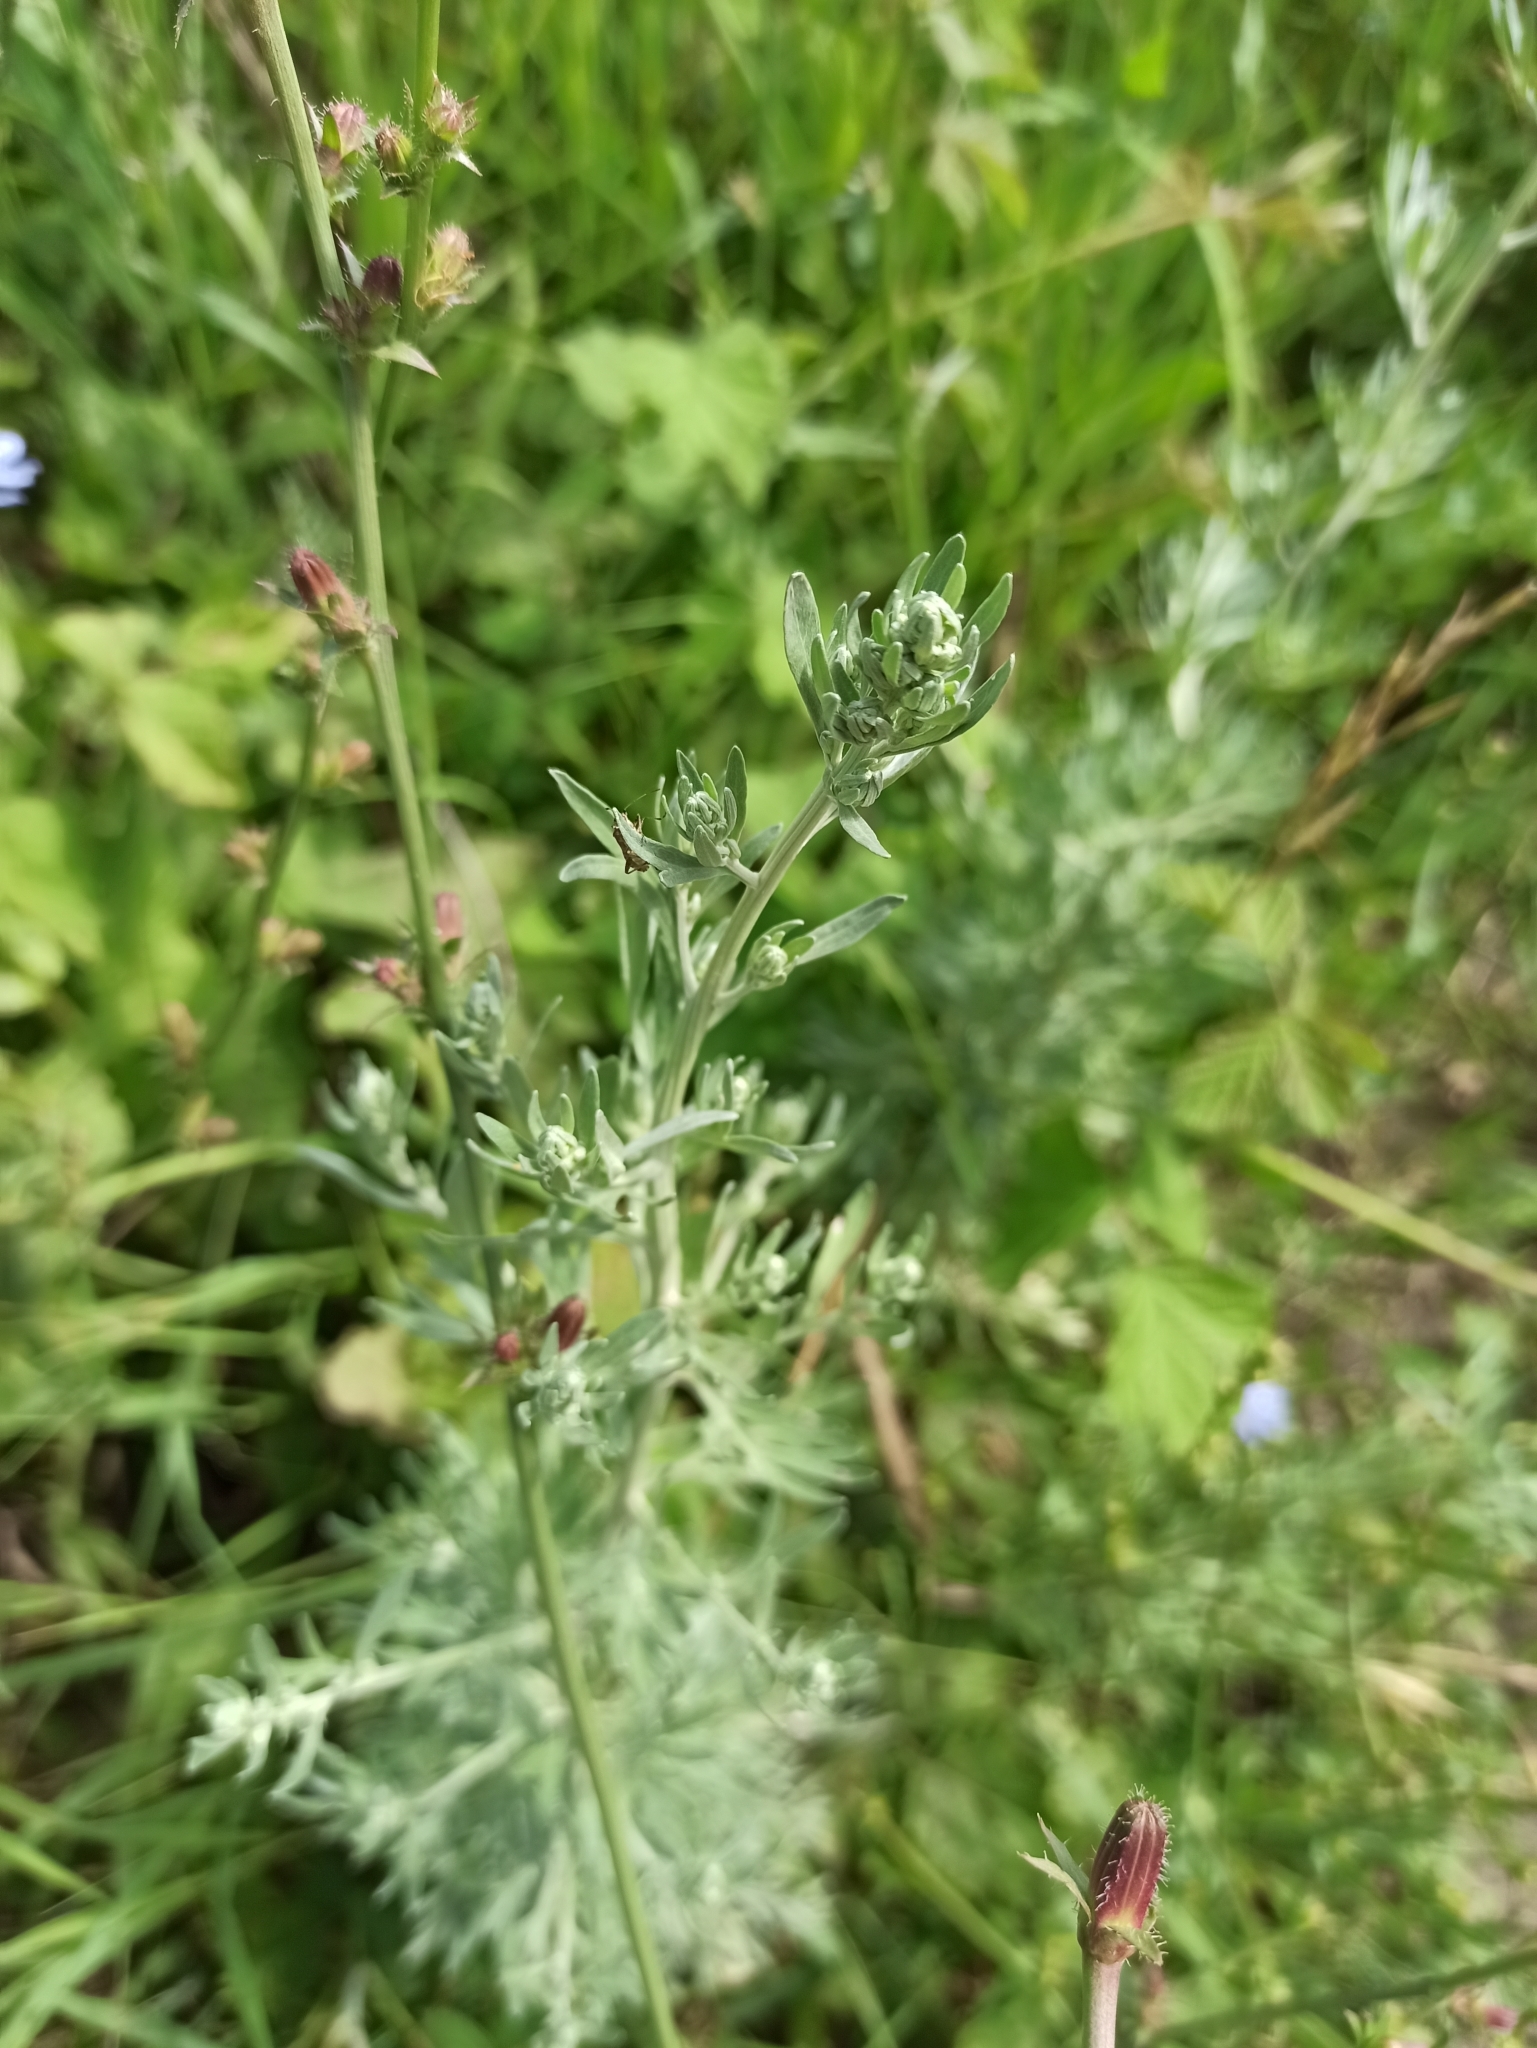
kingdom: Plantae
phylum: Tracheophyta
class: Magnoliopsida
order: Asterales
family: Asteraceae
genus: Artemisia
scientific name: Artemisia absinthium
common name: Wormwood
